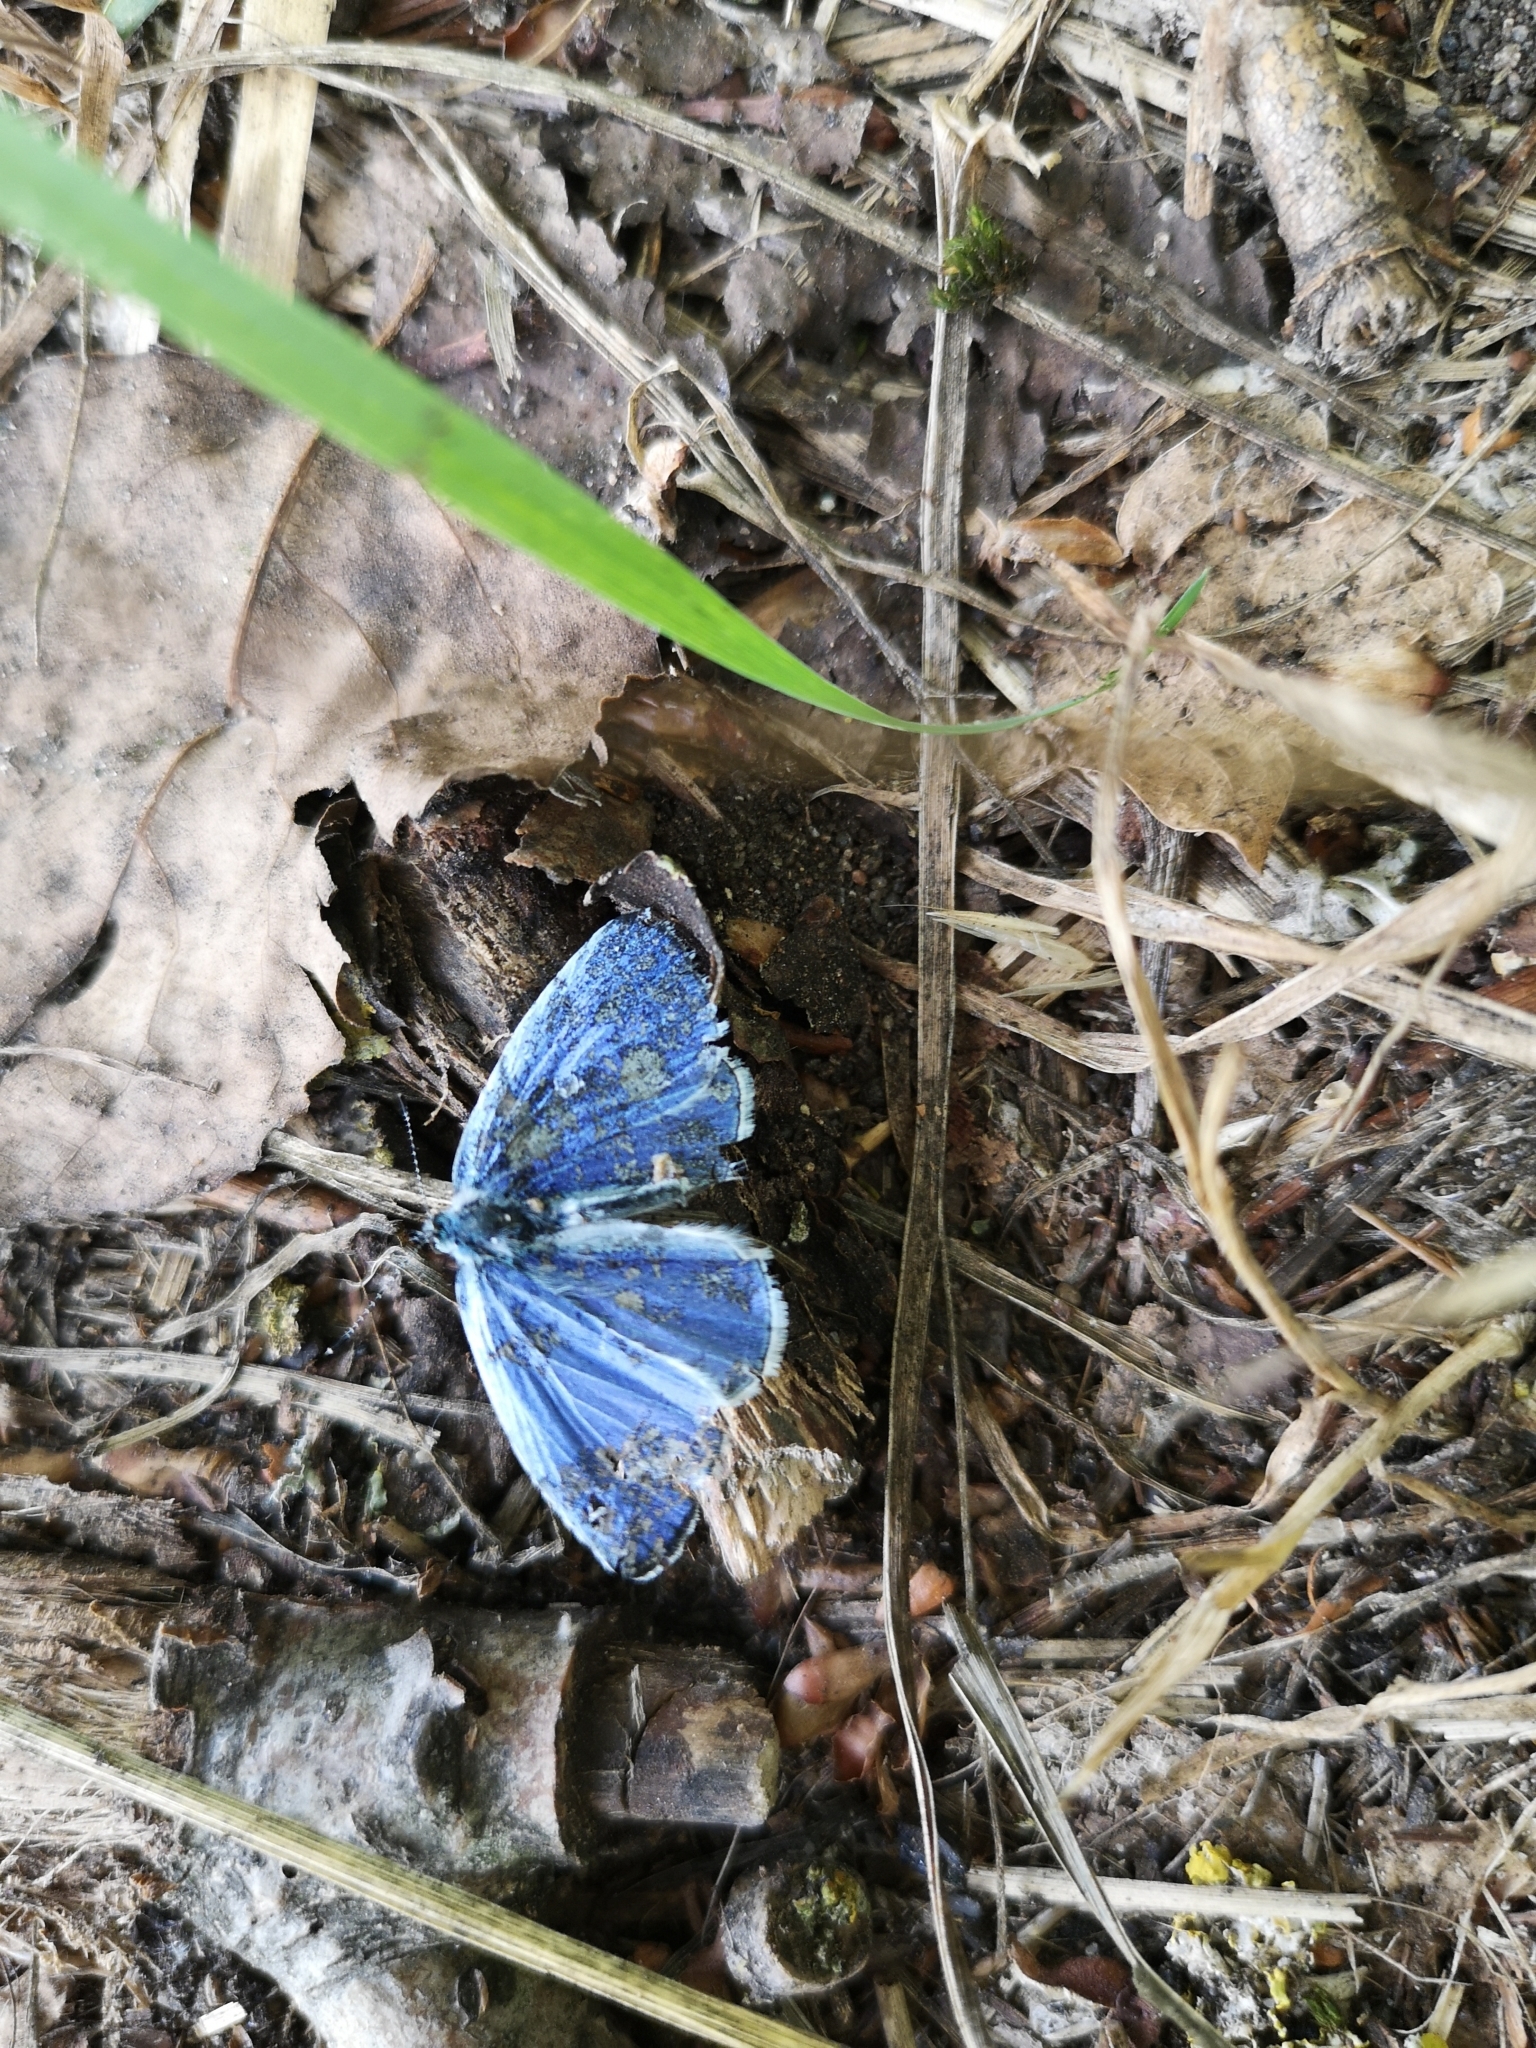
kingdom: Animalia
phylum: Arthropoda
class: Insecta
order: Lepidoptera
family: Lycaenidae
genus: Celastrina
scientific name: Celastrina argiolus
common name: Holly blue
